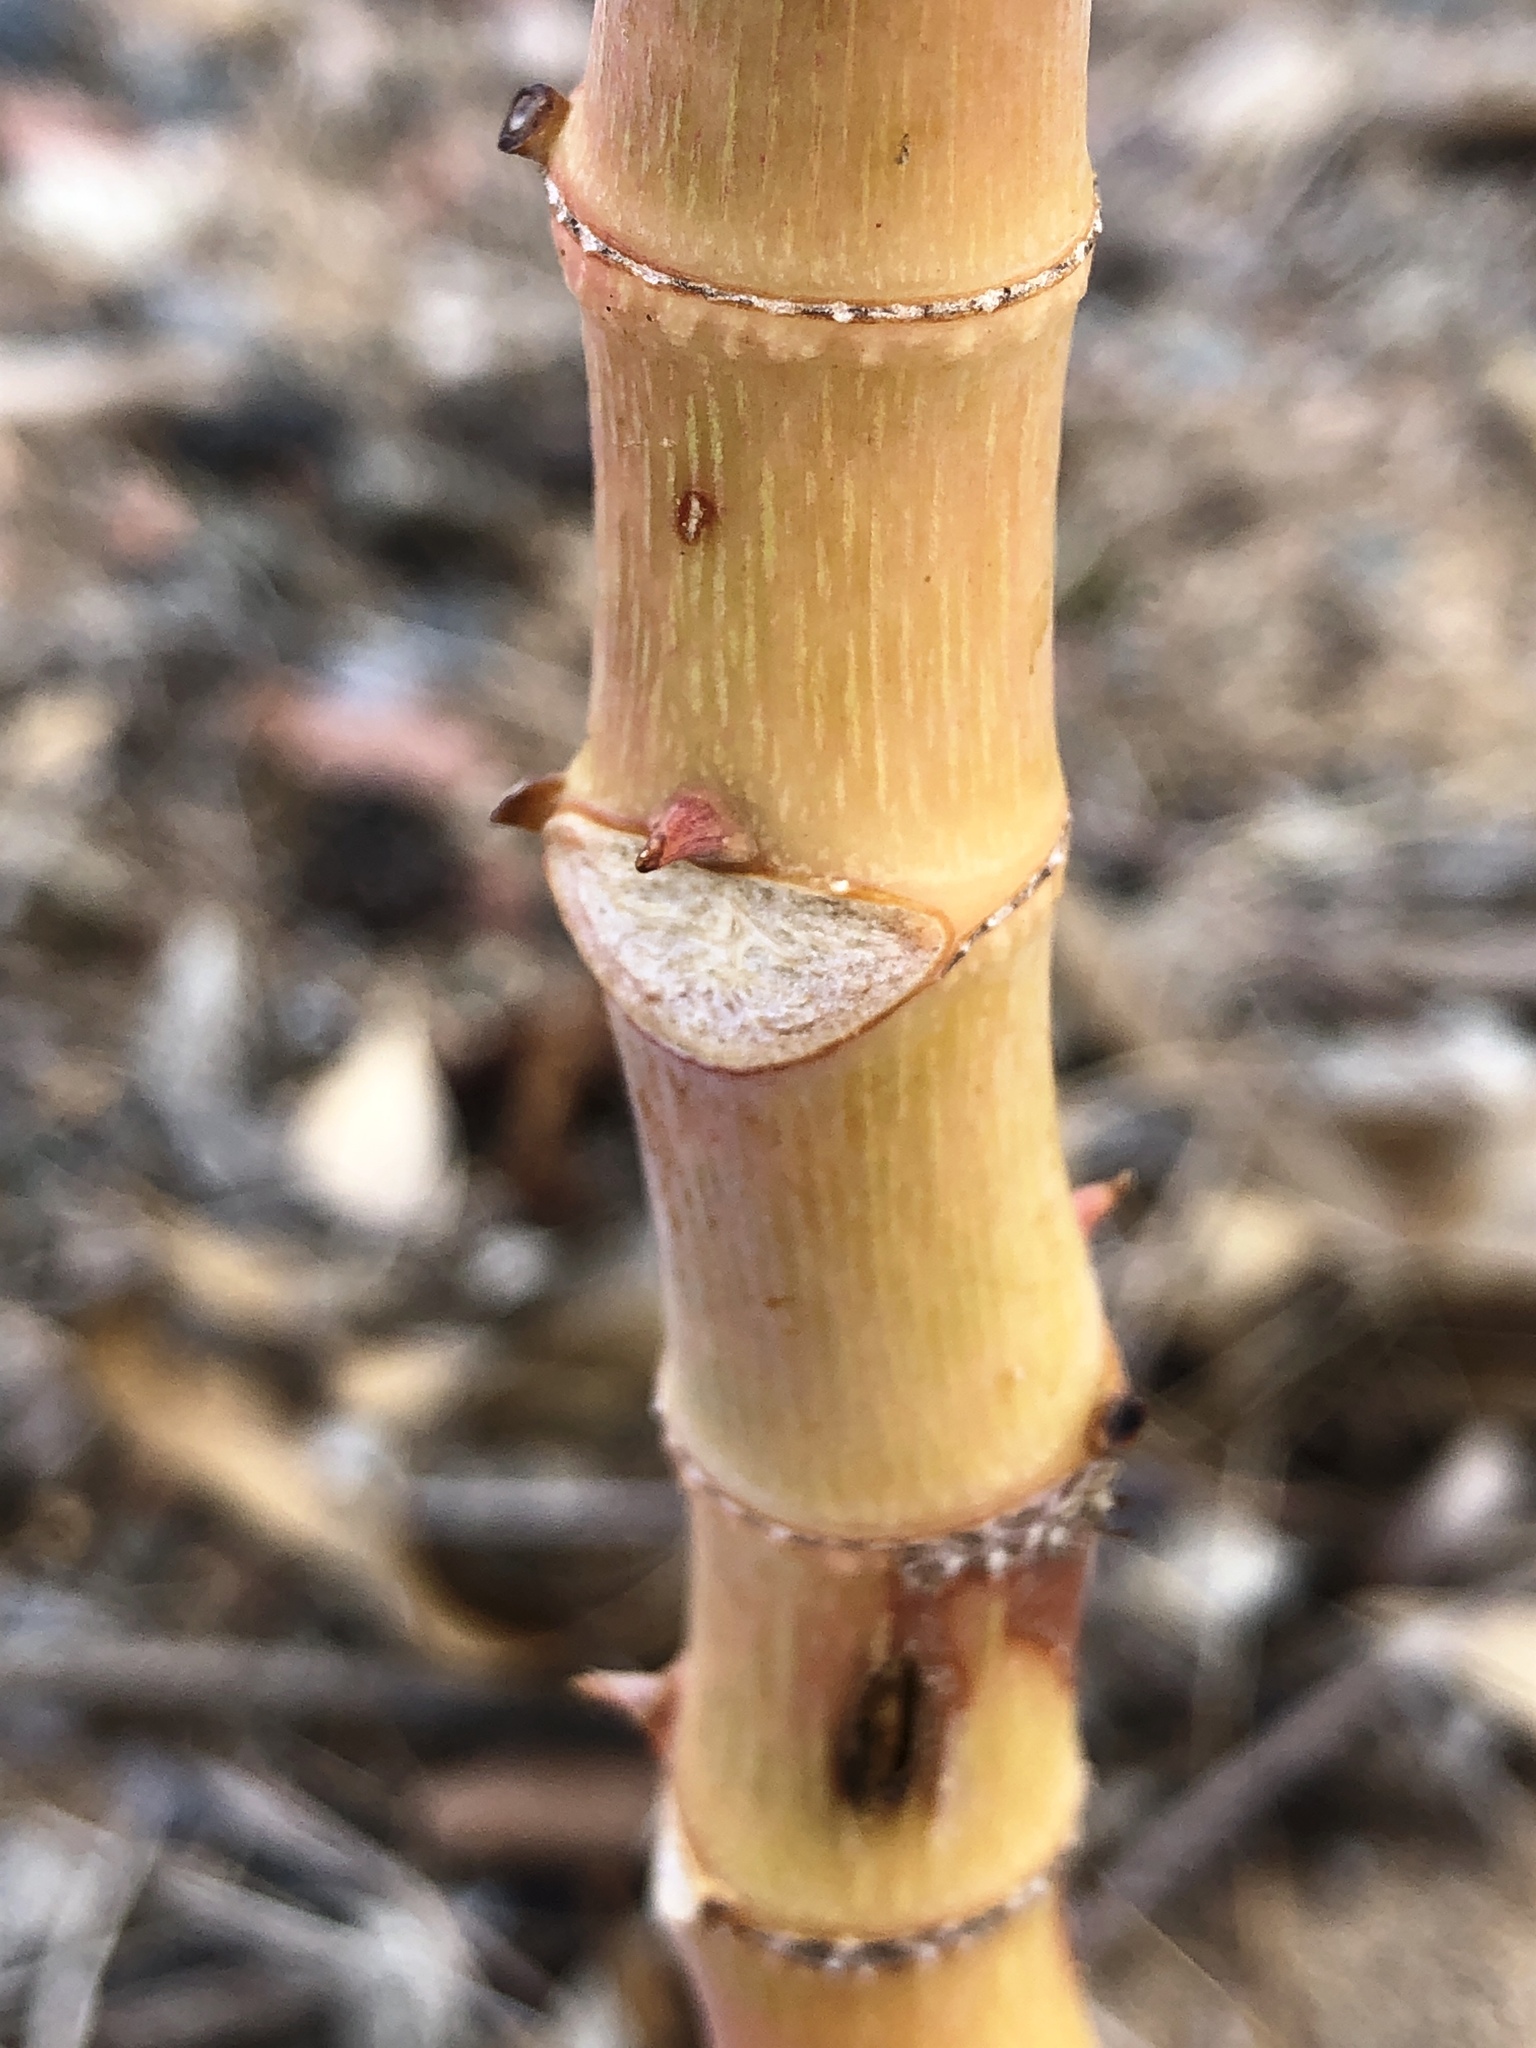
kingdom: Plantae
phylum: Tracheophyta
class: Magnoliopsida
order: Malpighiales
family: Euphorbiaceae
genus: Ricinus
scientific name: Ricinus communis
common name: Castor-oil-plant
